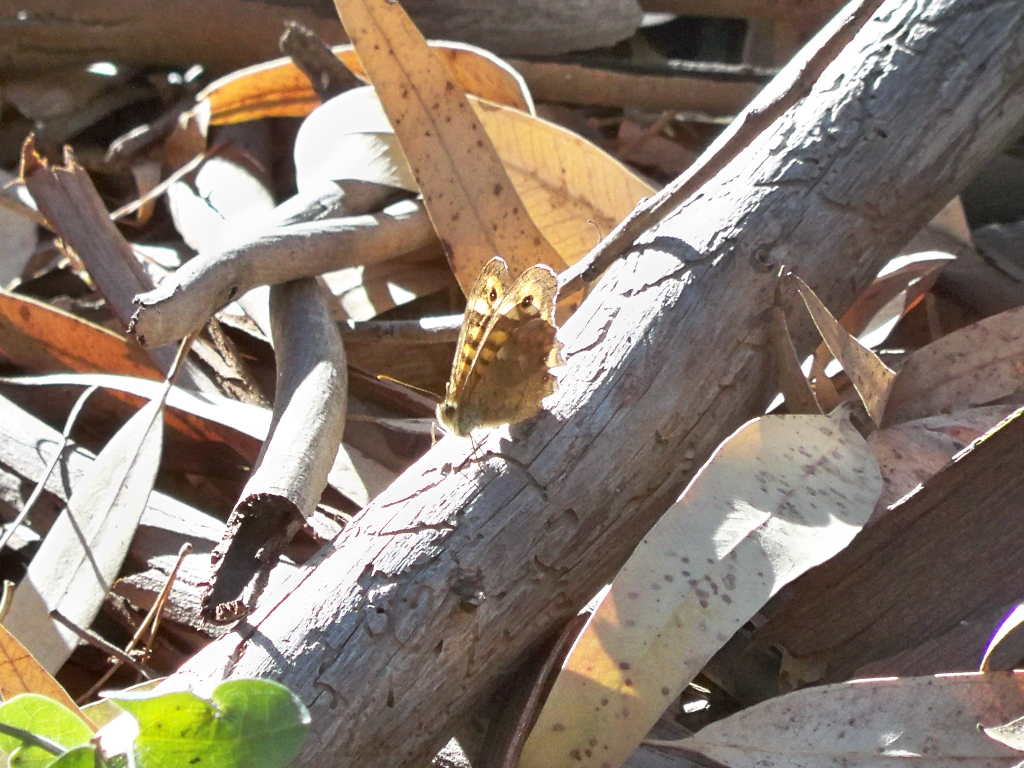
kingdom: Animalia
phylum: Arthropoda
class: Insecta
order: Lepidoptera
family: Nymphalidae
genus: Pararge
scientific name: Pararge aegeria
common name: Speckled wood
